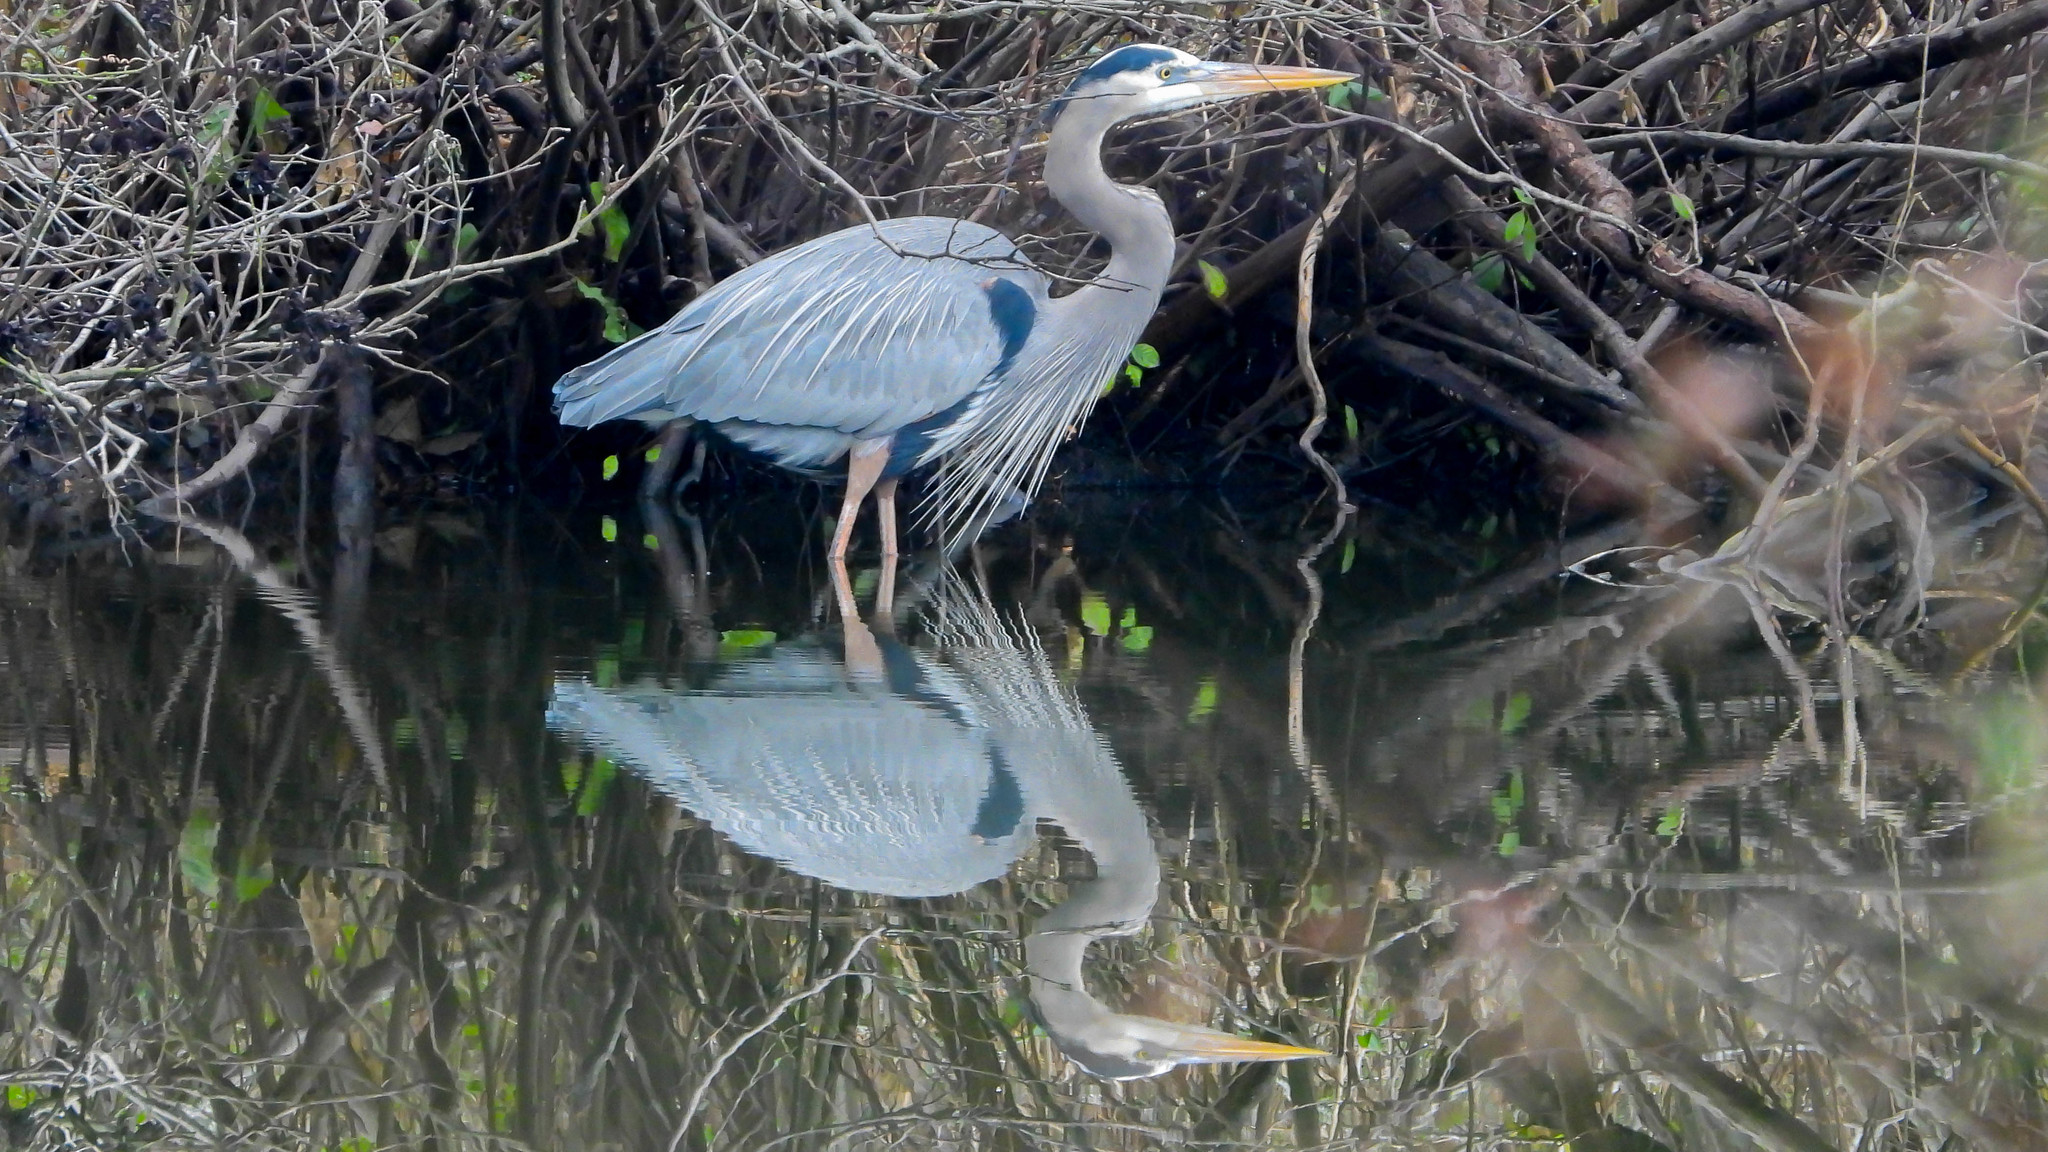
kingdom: Animalia
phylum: Chordata
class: Aves
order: Pelecaniformes
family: Ardeidae
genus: Ardea
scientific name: Ardea herodias
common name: Great blue heron
